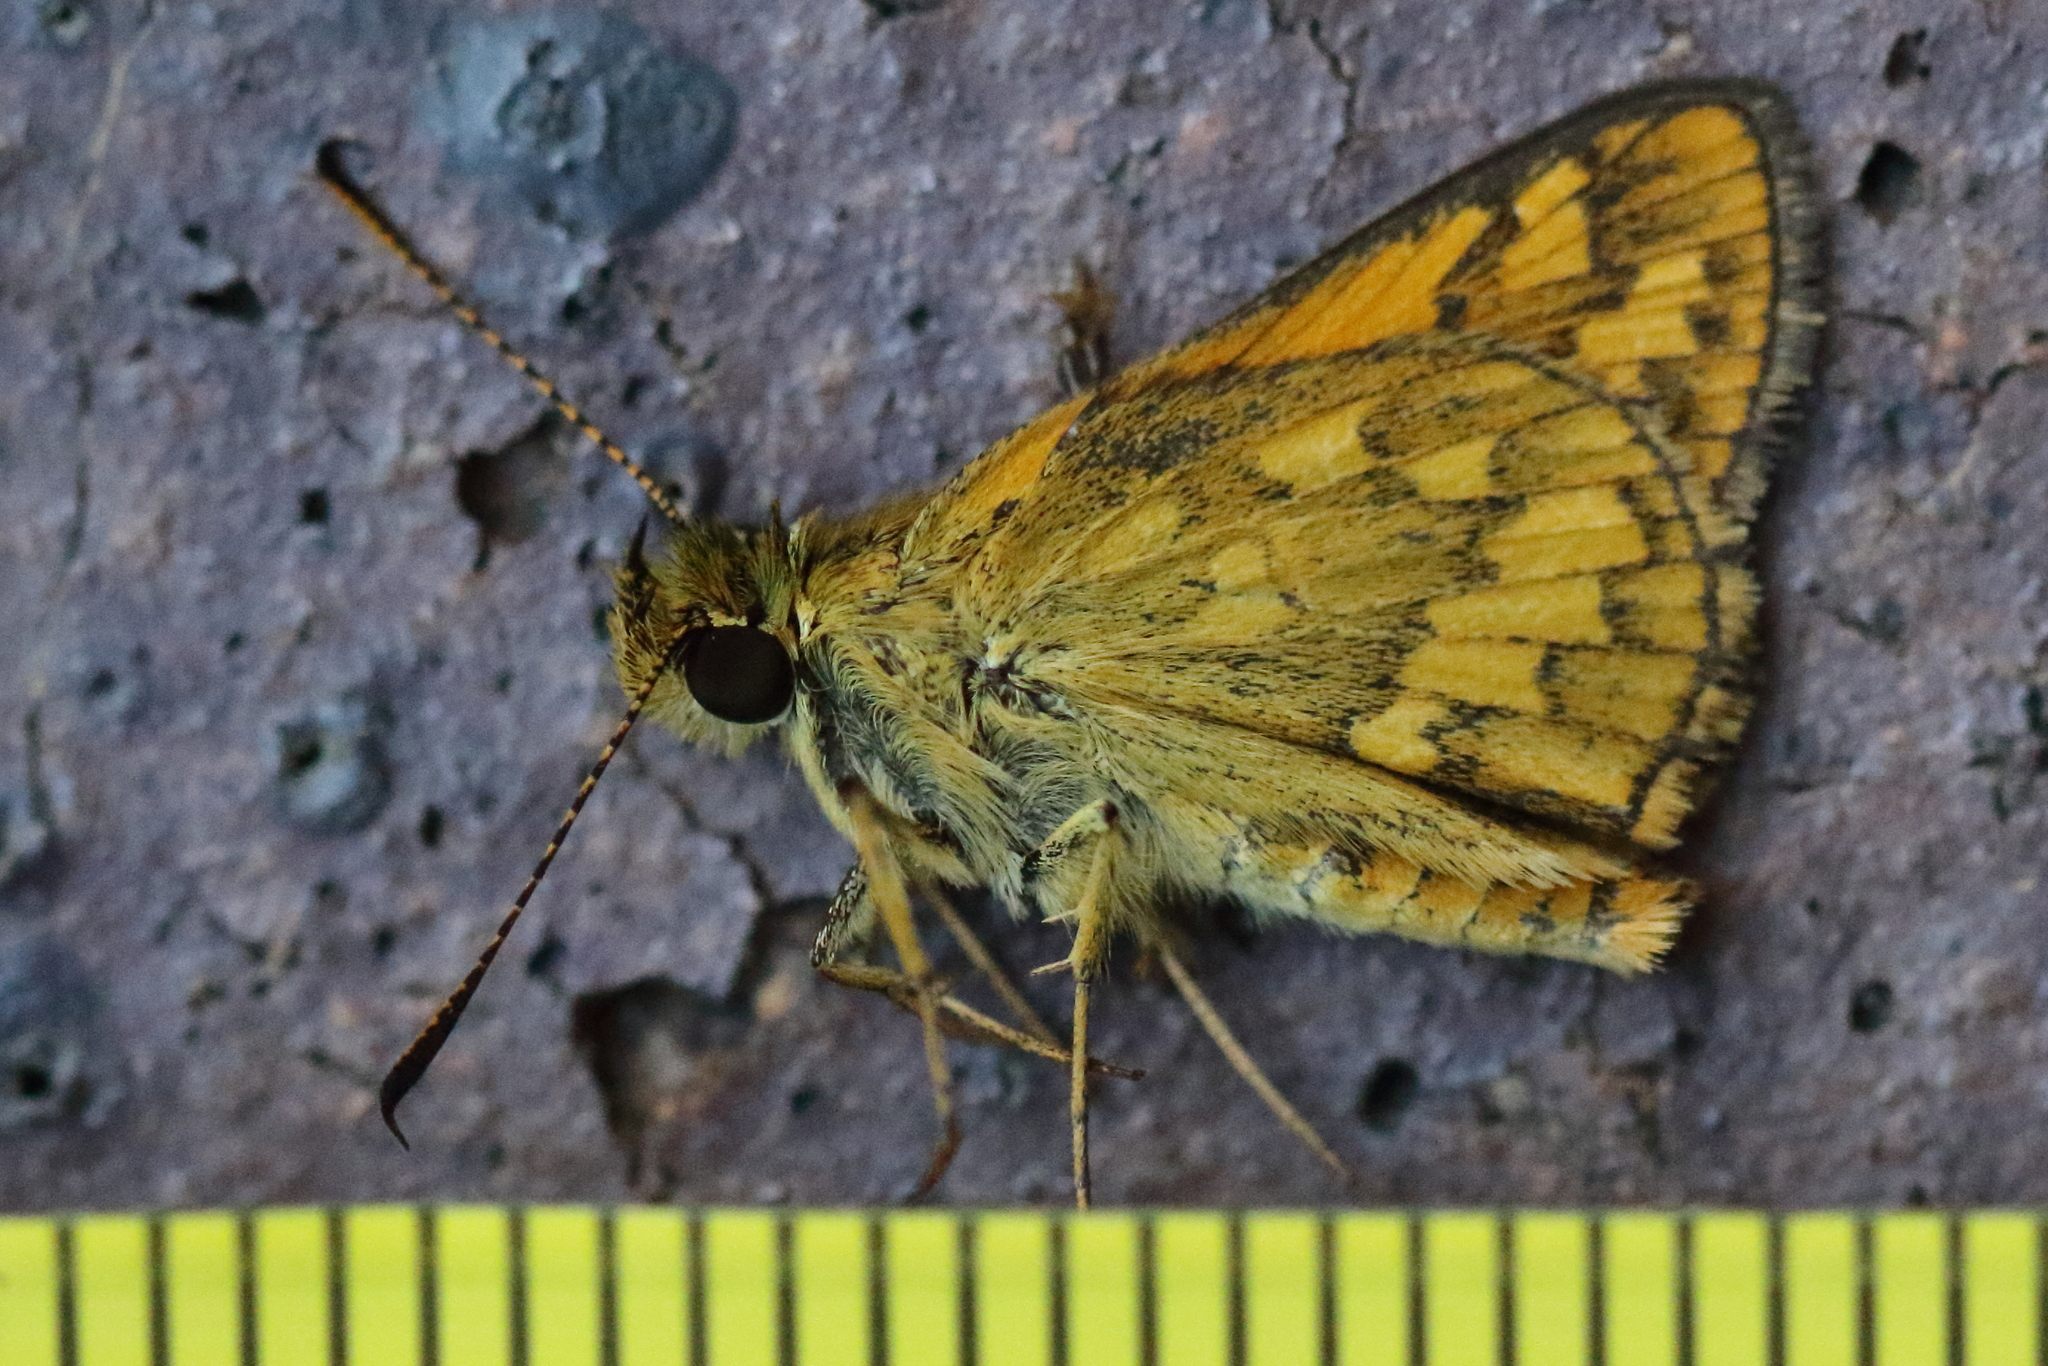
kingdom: Animalia
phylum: Arthropoda
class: Insecta
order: Lepidoptera
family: Hesperiidae
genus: Suniana
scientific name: Suniana sunias
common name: Wide-brand grass-dart
